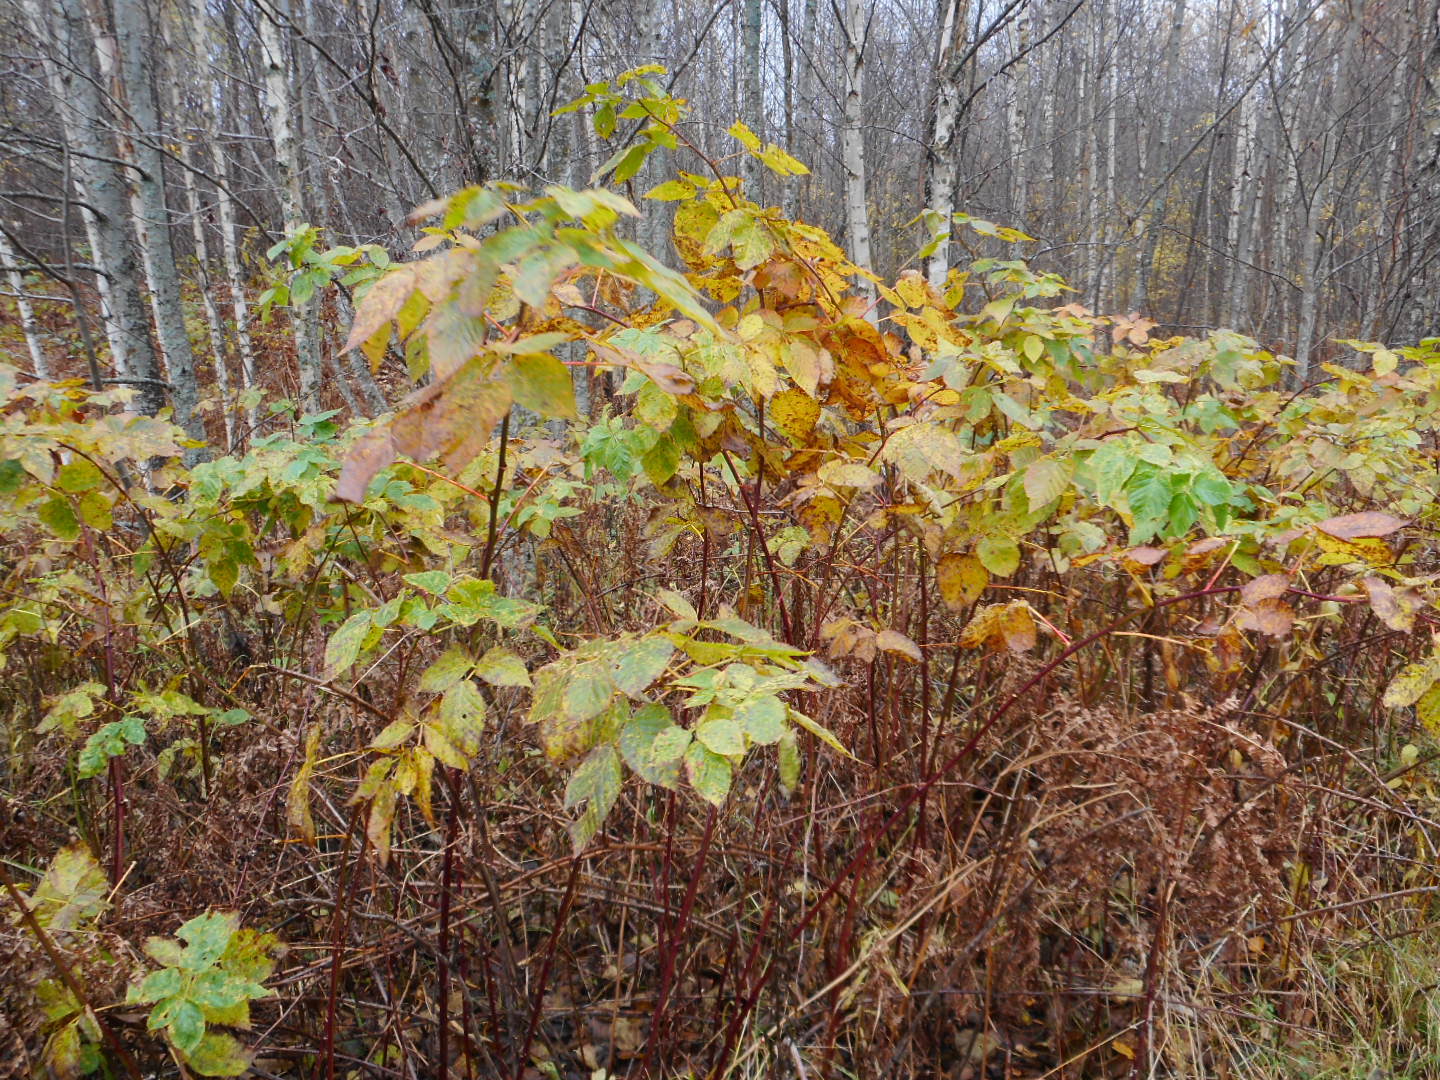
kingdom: Plantae
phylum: Tracheophyta
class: Magnoliopsida
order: Rosales
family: Rosaceae
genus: Rubus
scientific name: Rubus polonicus
